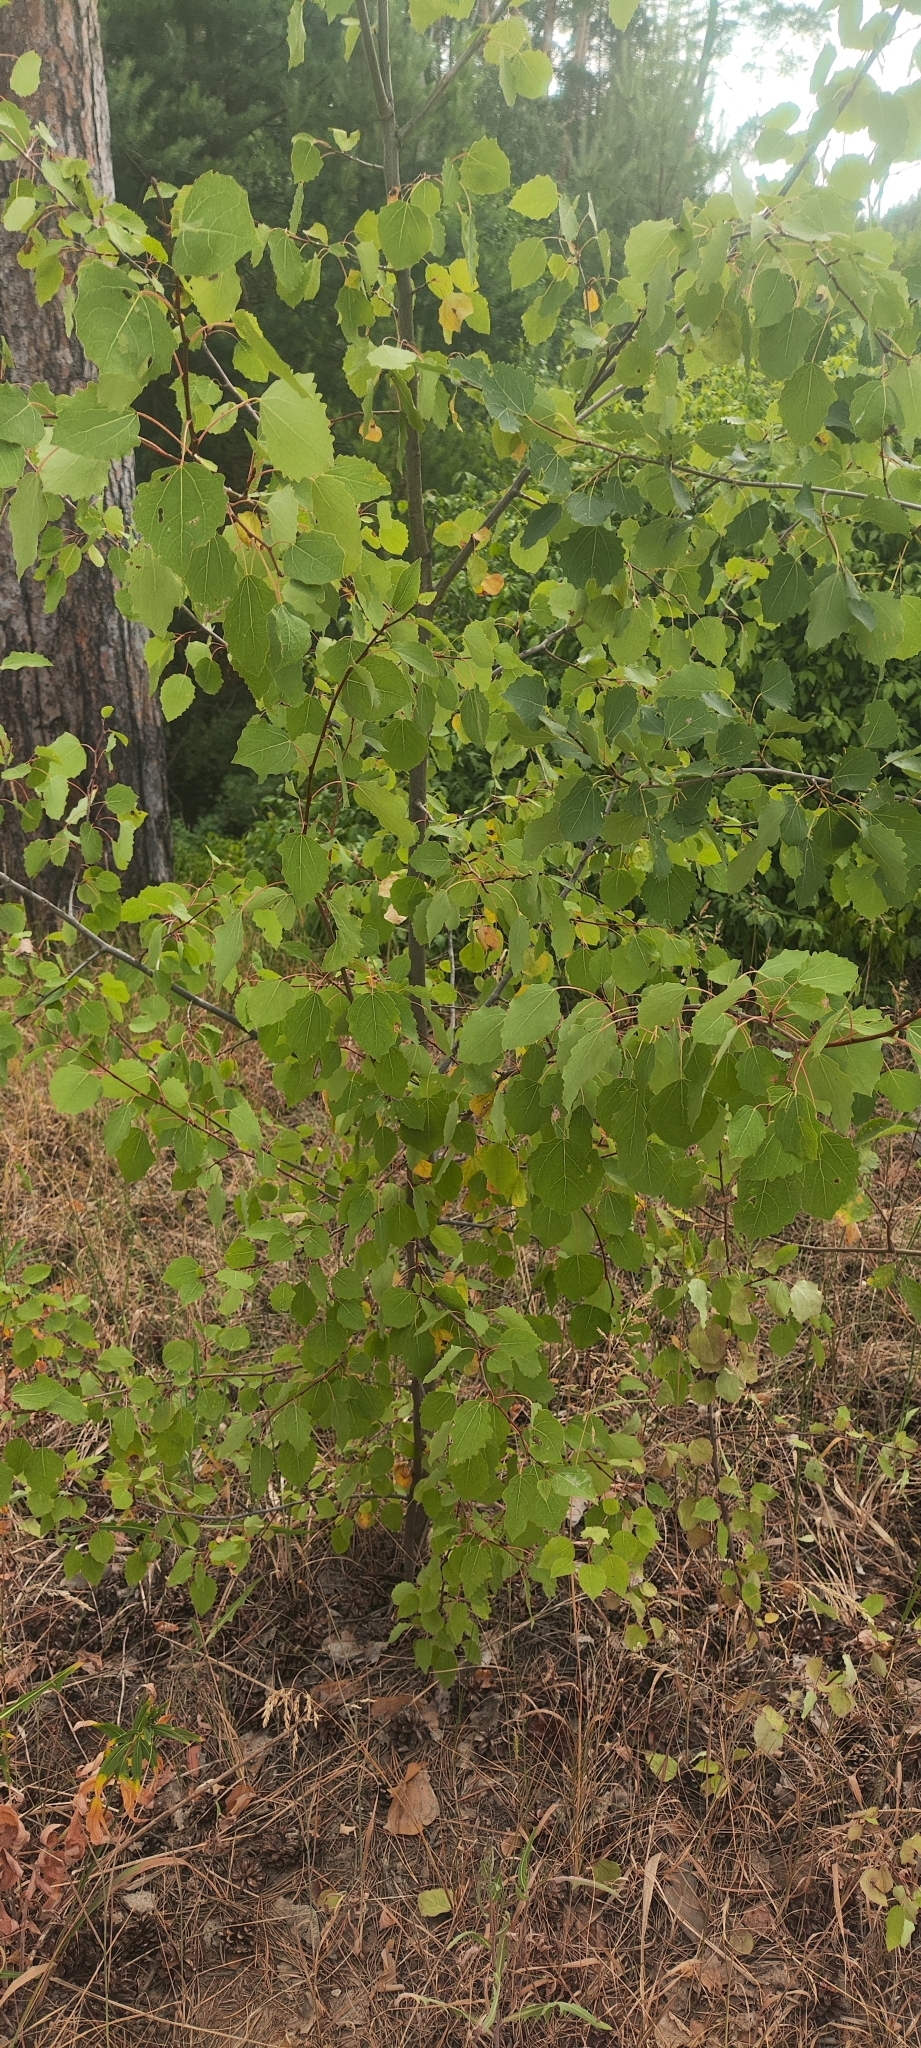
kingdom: Plantae
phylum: Tracheophyta
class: Magnoliopsida
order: Malpighiales
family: Salicaceae
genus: Populus
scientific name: Populus tremula
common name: European aspen
